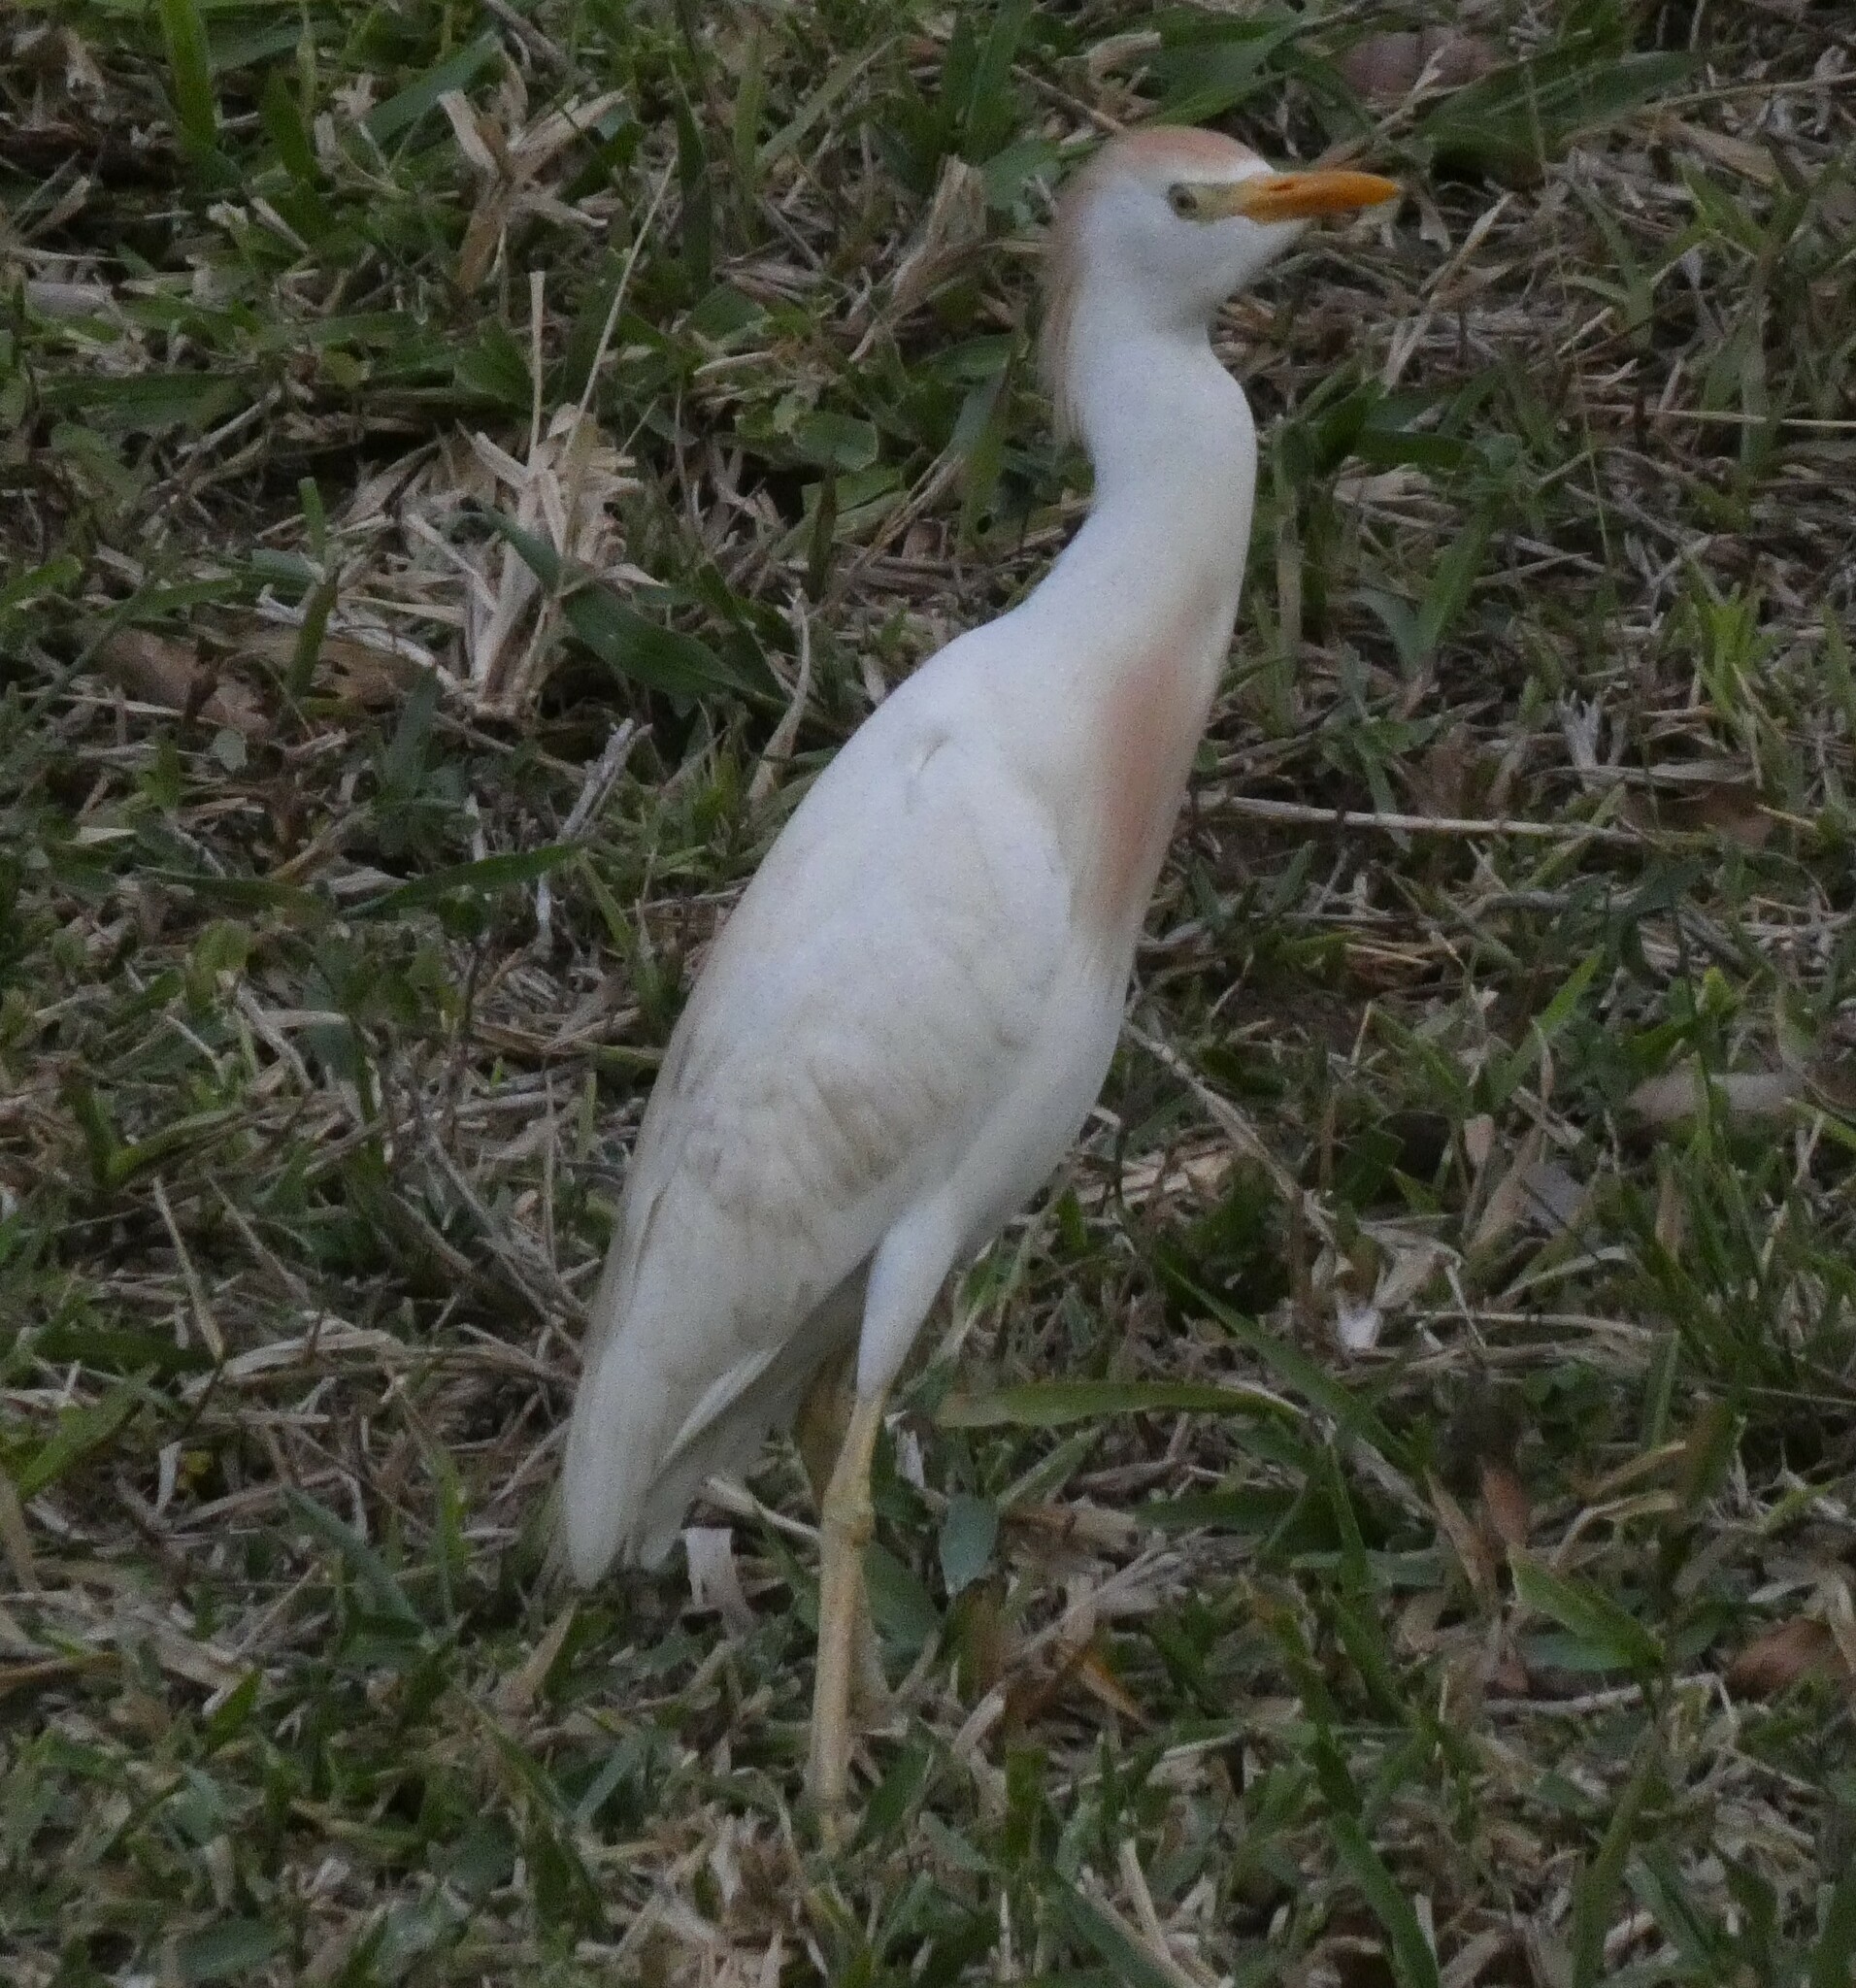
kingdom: Animalia
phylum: Chordata
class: Aves
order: Pelecaniformes
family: Ardeidae
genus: Bubulcus
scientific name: Bubulcus ibis
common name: Cattle egret
